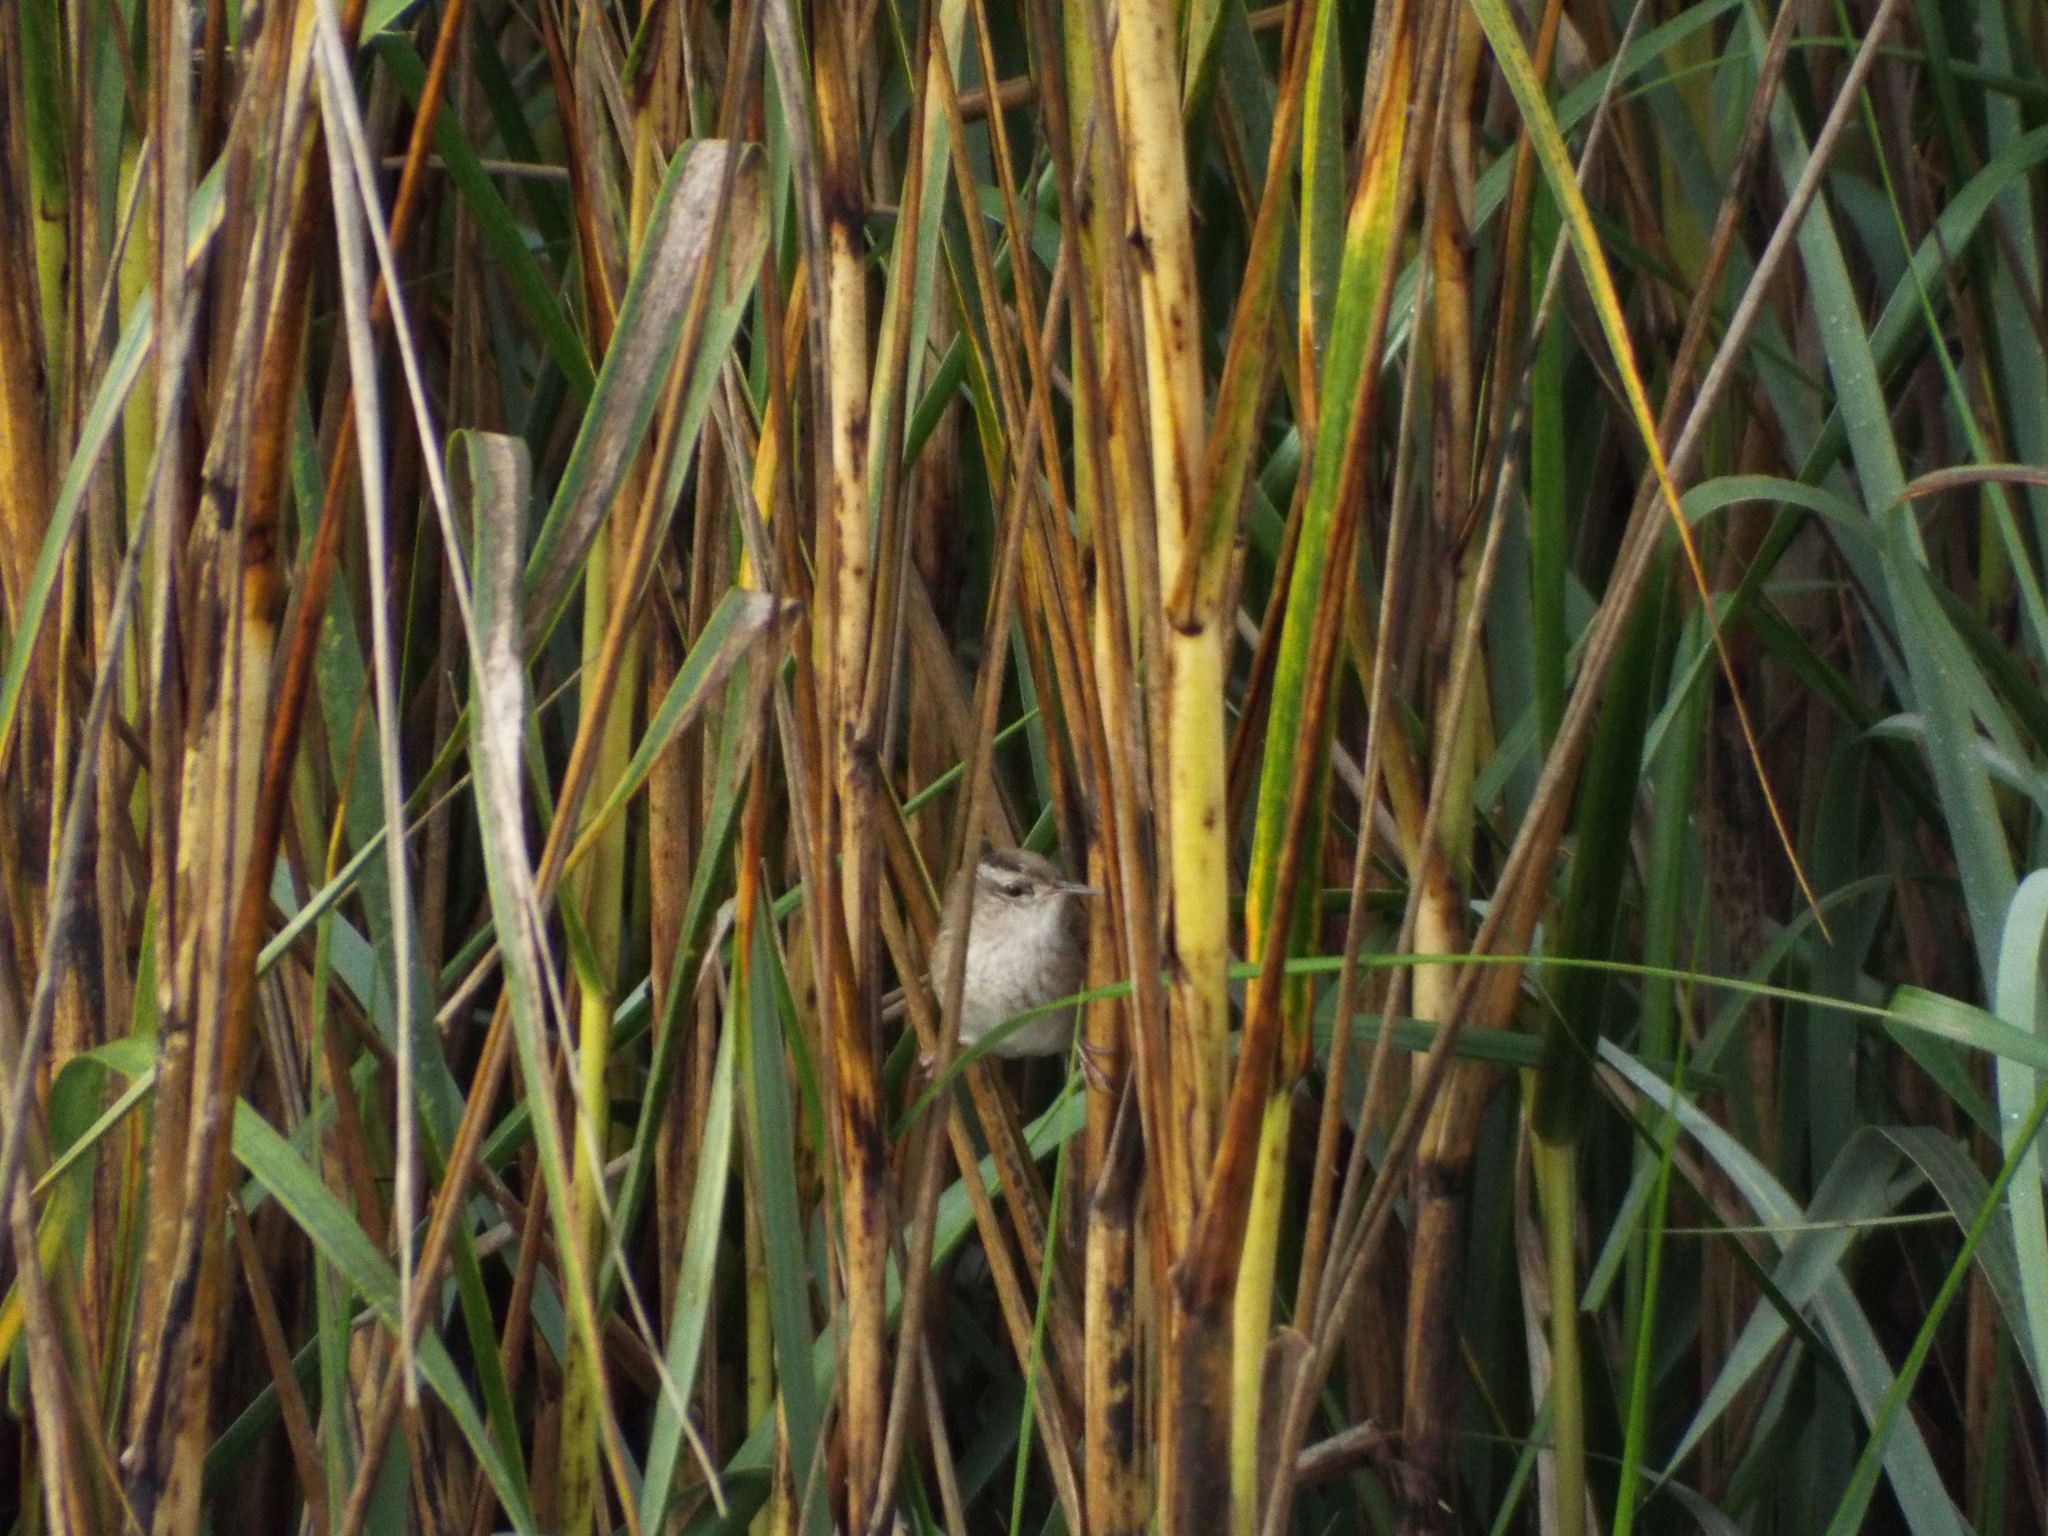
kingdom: Animalia
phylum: Chordata
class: Aves
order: Passeriformes
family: Troglodytidae
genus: Cistothorus
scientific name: Cistothorus palustris
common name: Marsh wren
